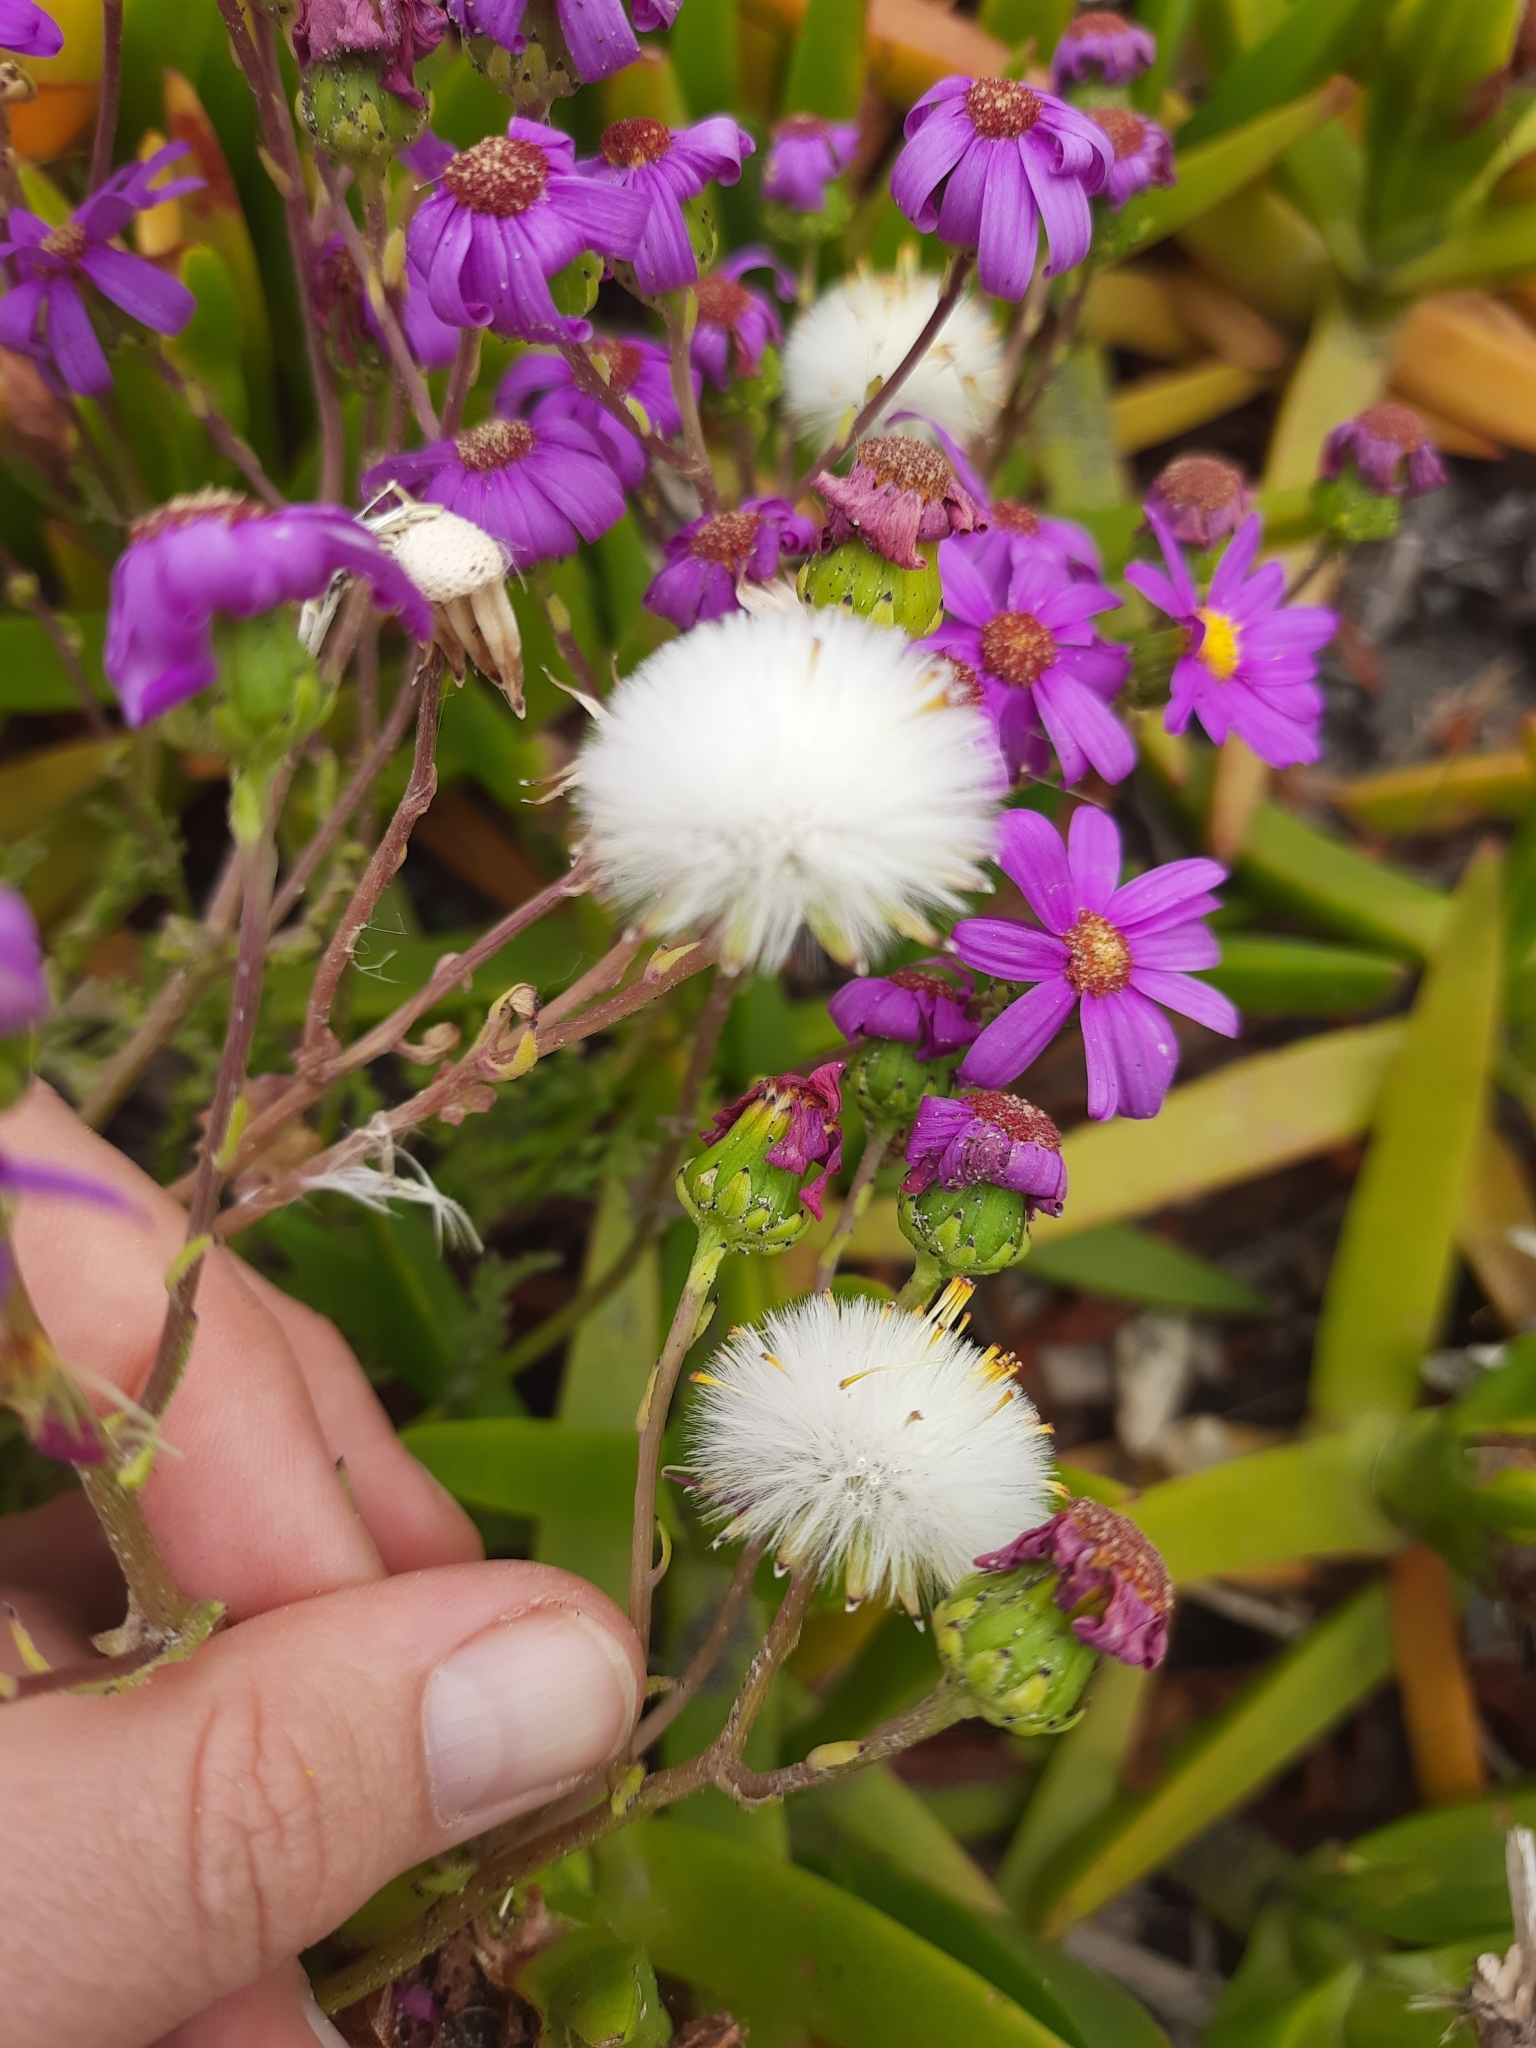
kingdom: Plantae
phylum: Tracheophyta
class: Magnoliopsida
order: Asterales
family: Asteraceae
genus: Senecio
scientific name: Senecio elegans
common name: Purple groundsel
